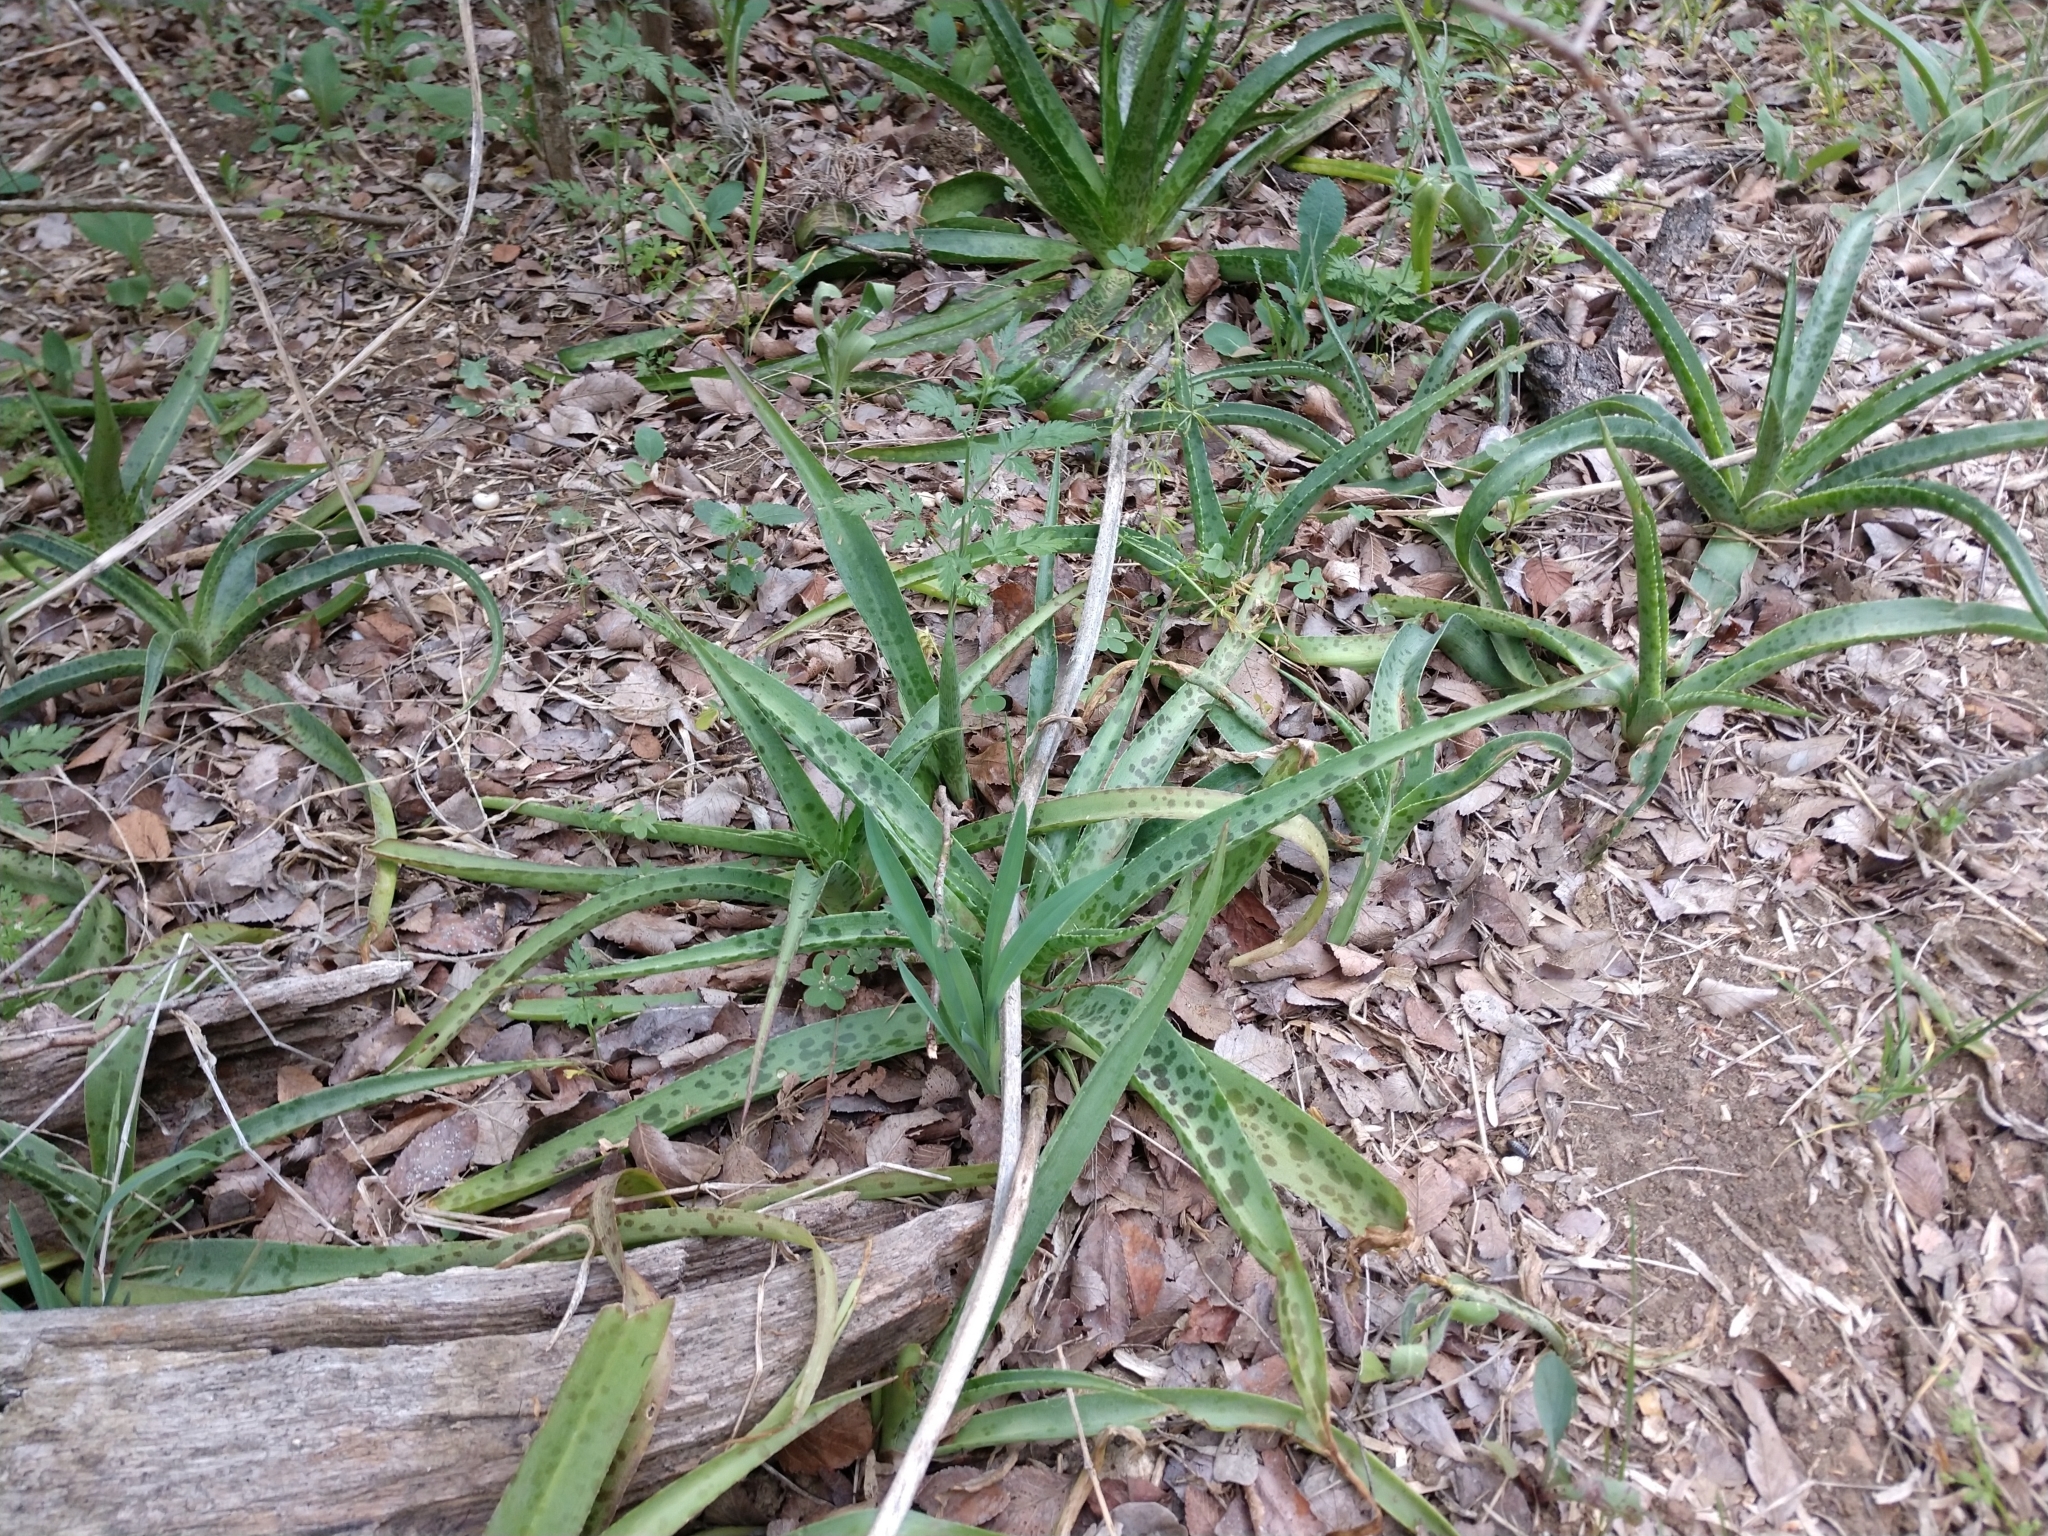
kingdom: Plantae
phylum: Tracheophyta
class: Liliopsida
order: Asparagales
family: Asparagaceae
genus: Agave
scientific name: Agave maculata
